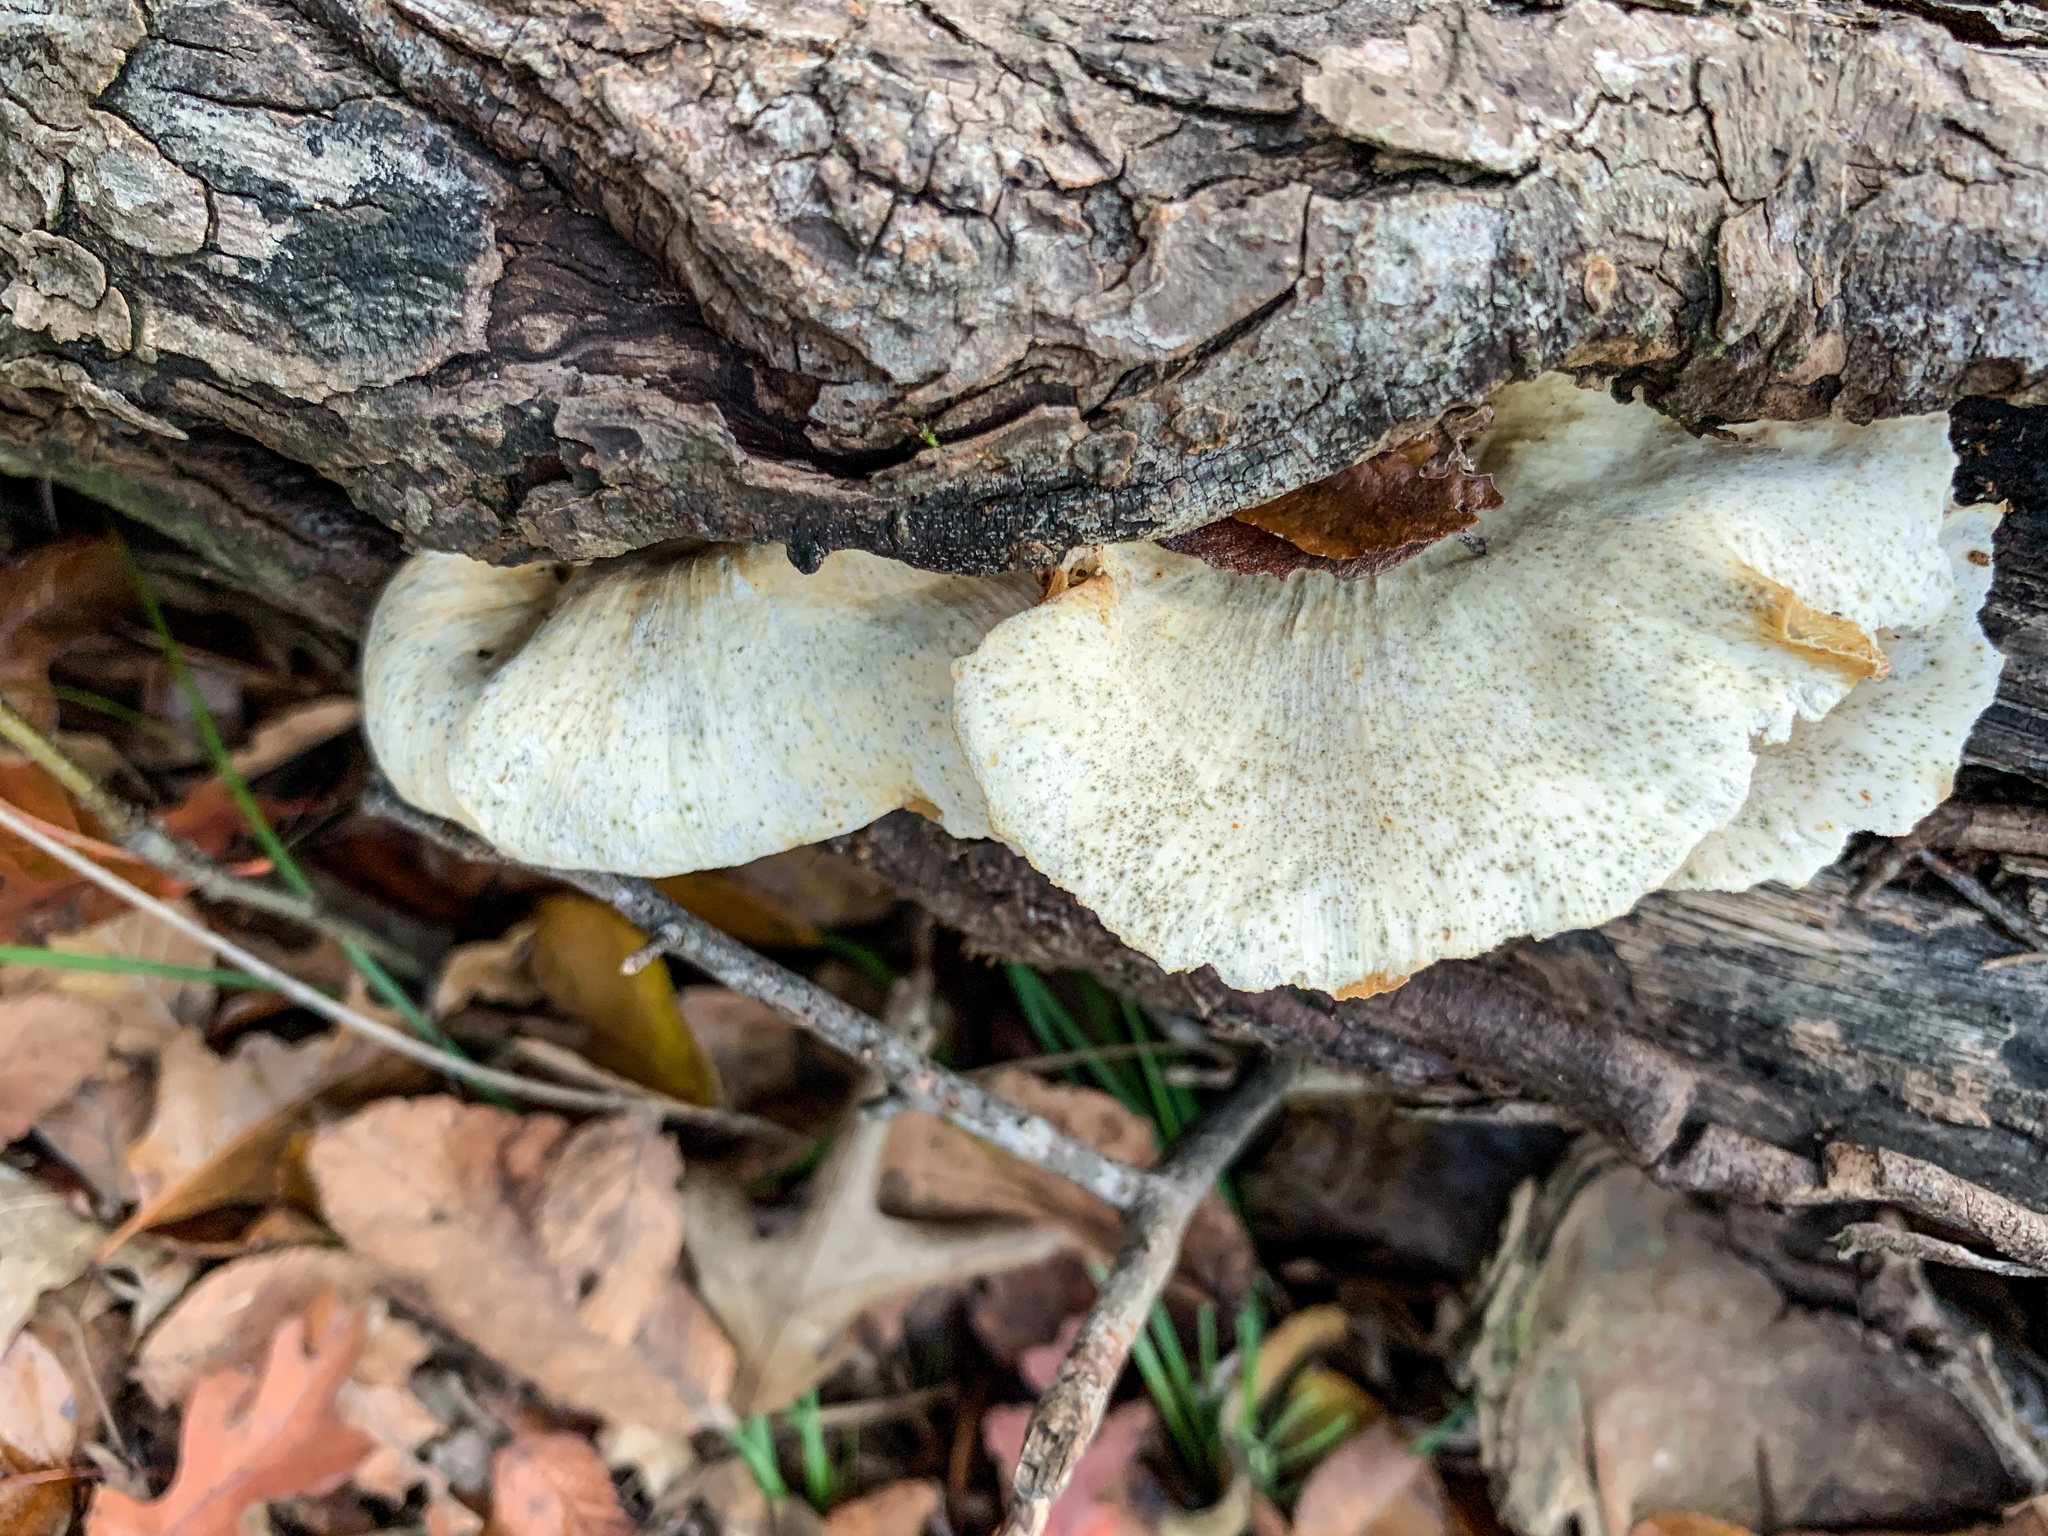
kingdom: Fungi
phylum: Basidiomycota
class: Agaricomycetes
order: Polyporales
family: Polyporaceae
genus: Favolus
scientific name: Favolus tenuiculus
